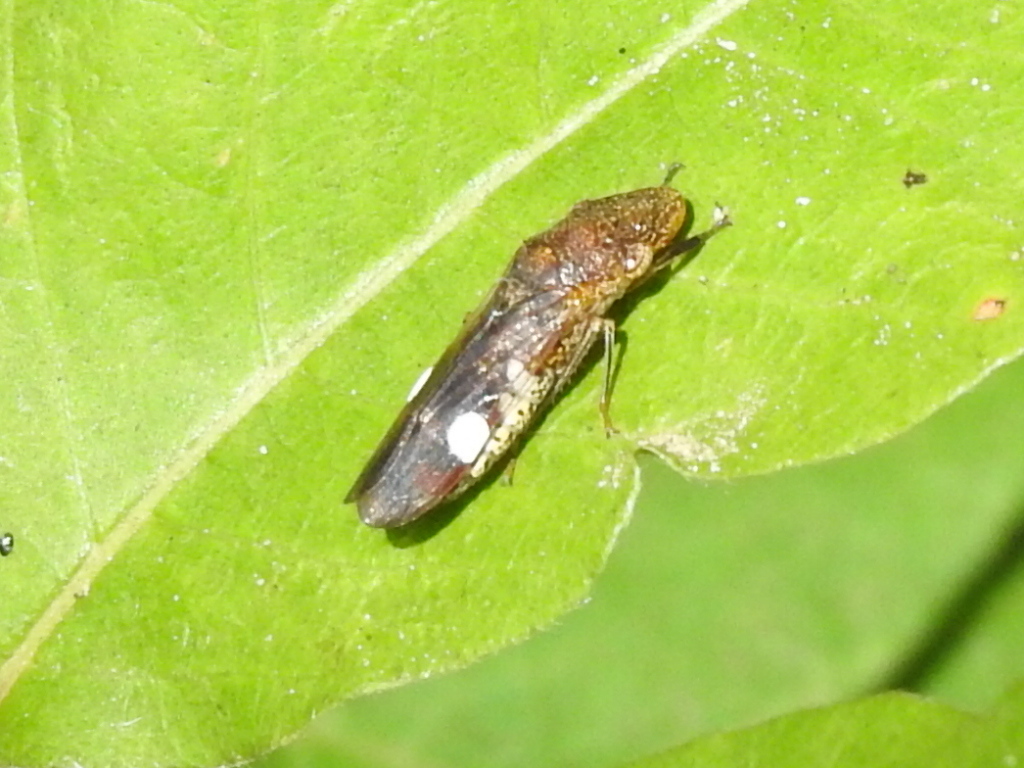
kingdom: Animalia
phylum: Arthropoda
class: Insecta
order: Hemiptera
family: Cicadellidae
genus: Homalodisca
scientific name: Homalodisca vitripennis
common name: Glassy-winged sharpshooter
